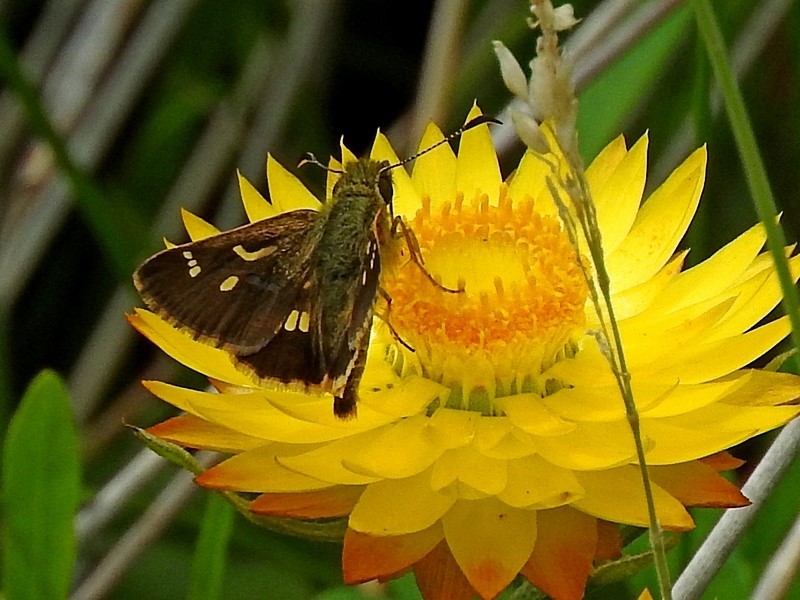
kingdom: Animalia
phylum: Arthropoda
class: Insecta
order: Lepidoptera
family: Hesperiidae
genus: Dispar
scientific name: Dispar compacta
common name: Barred skipper
